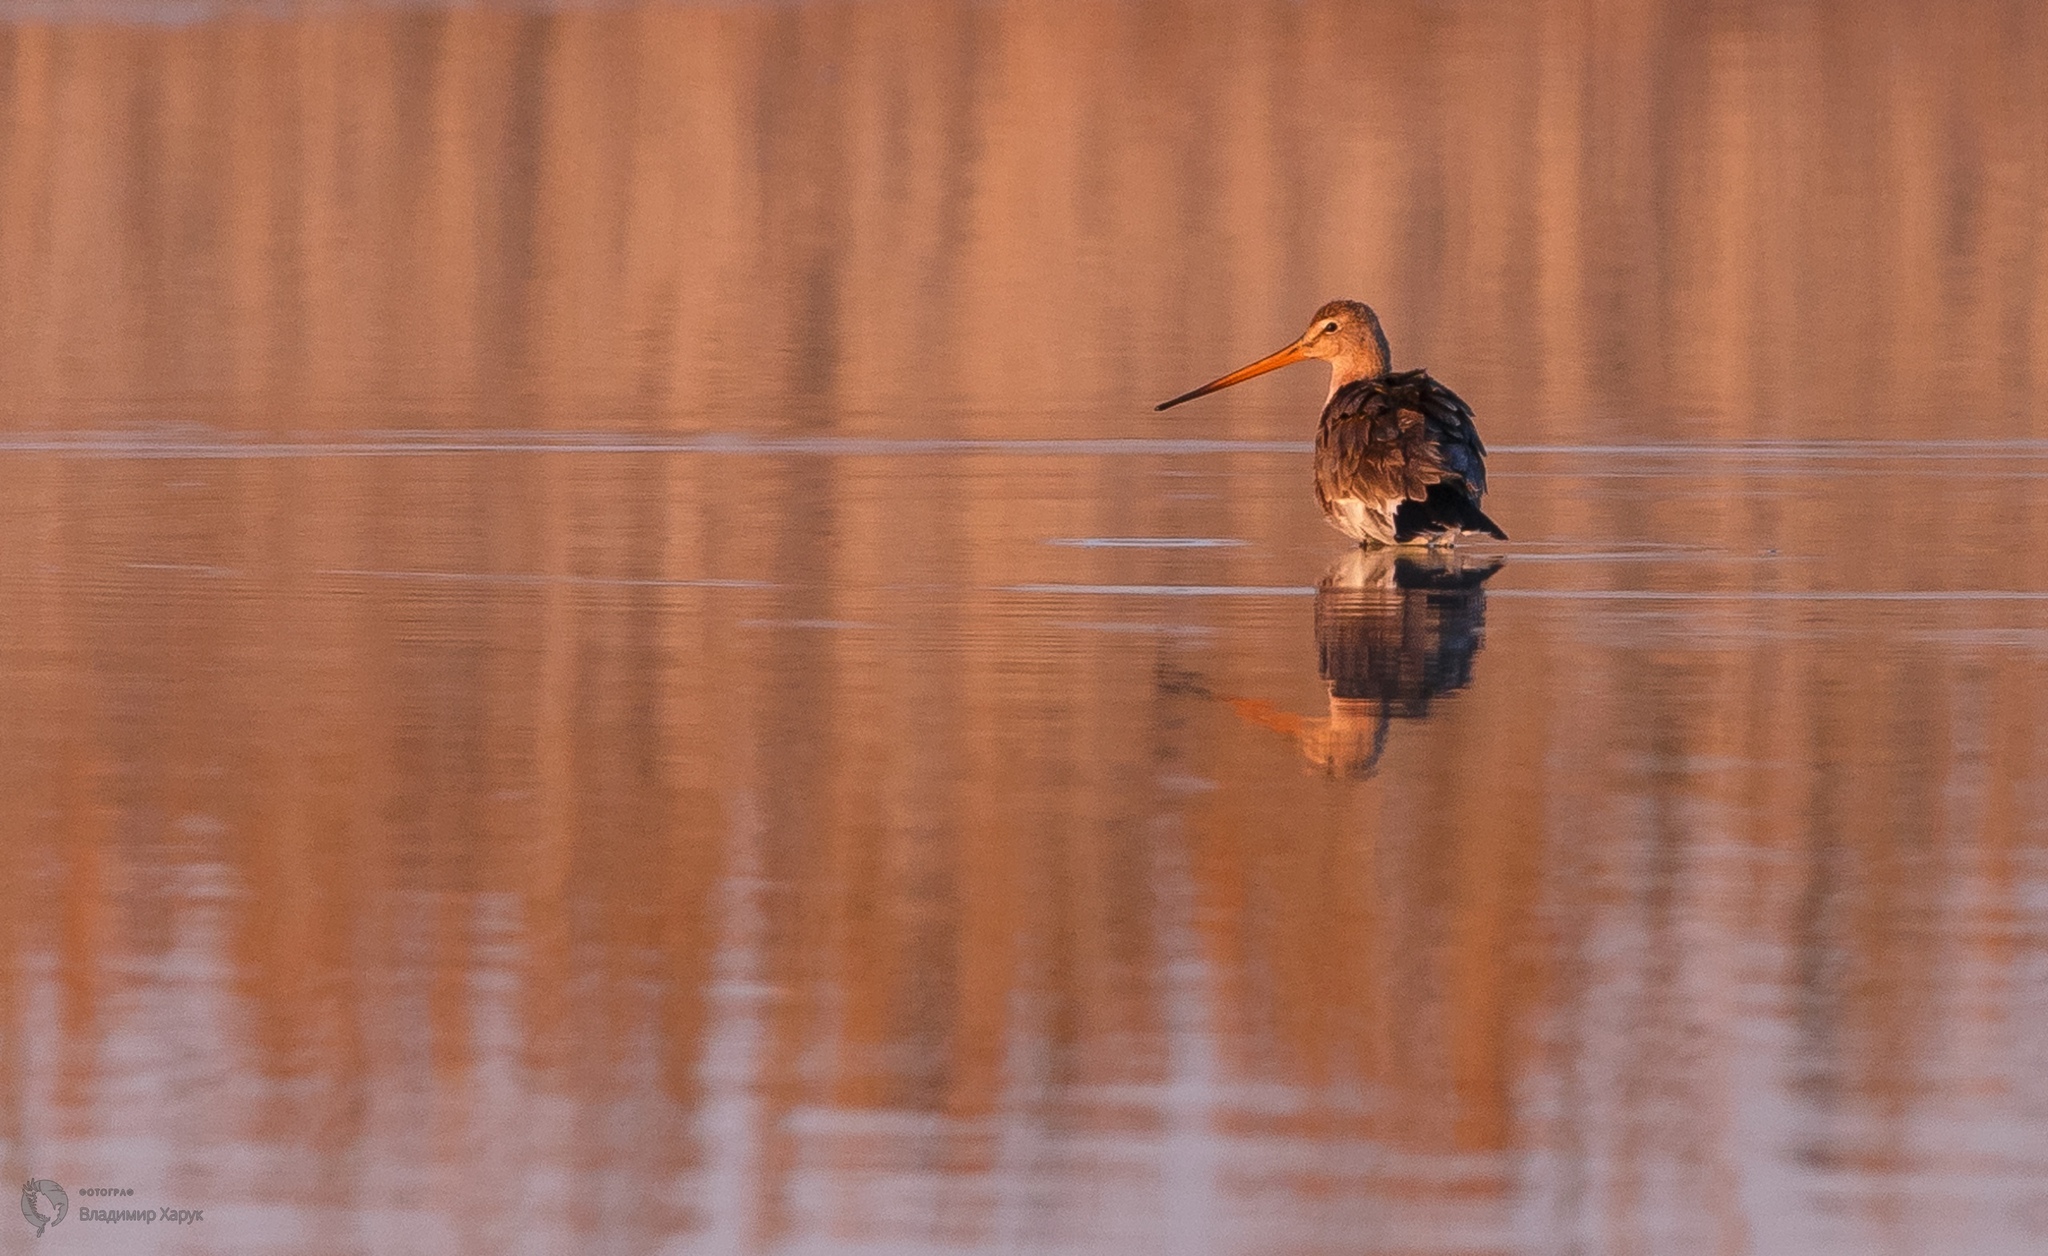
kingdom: Animalia
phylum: Chordata
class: Aves
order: Charadriiformes
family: Scolopacidae
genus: Limosa
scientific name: Limosa limosa
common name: Black-tailed godwit
